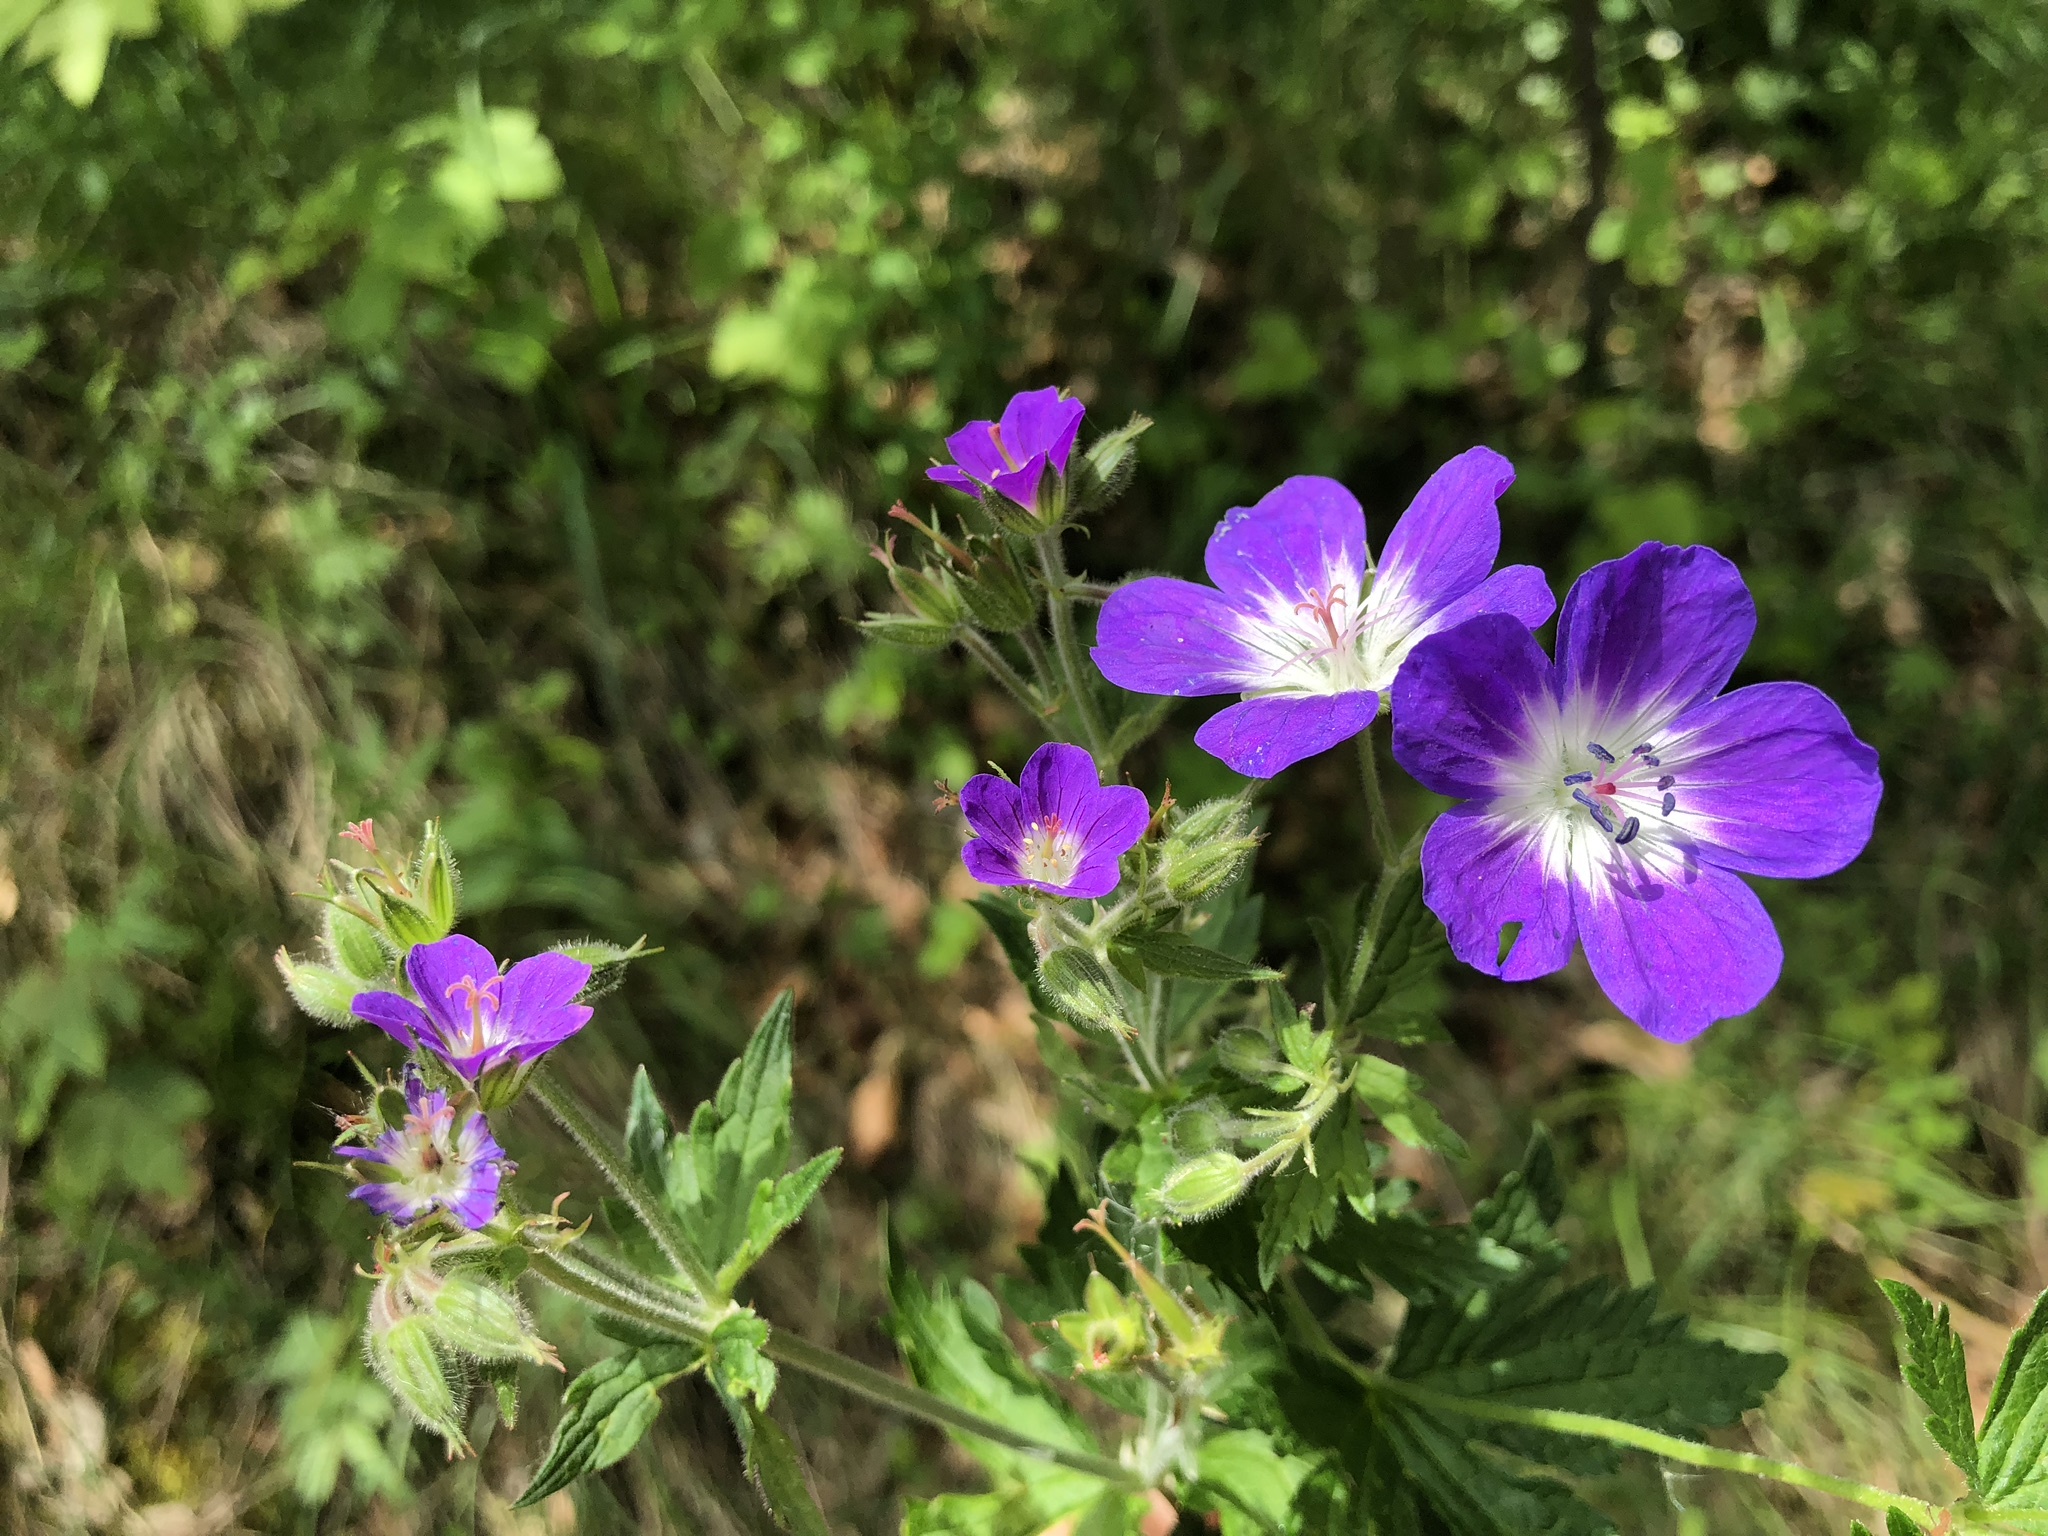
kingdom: Plantae
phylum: Tracheophyta
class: Magnoliopsida
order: Geraniales
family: Geraniaceae
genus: Geranium
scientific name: Geranium sylvaticum
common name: Wood crane's-bill
